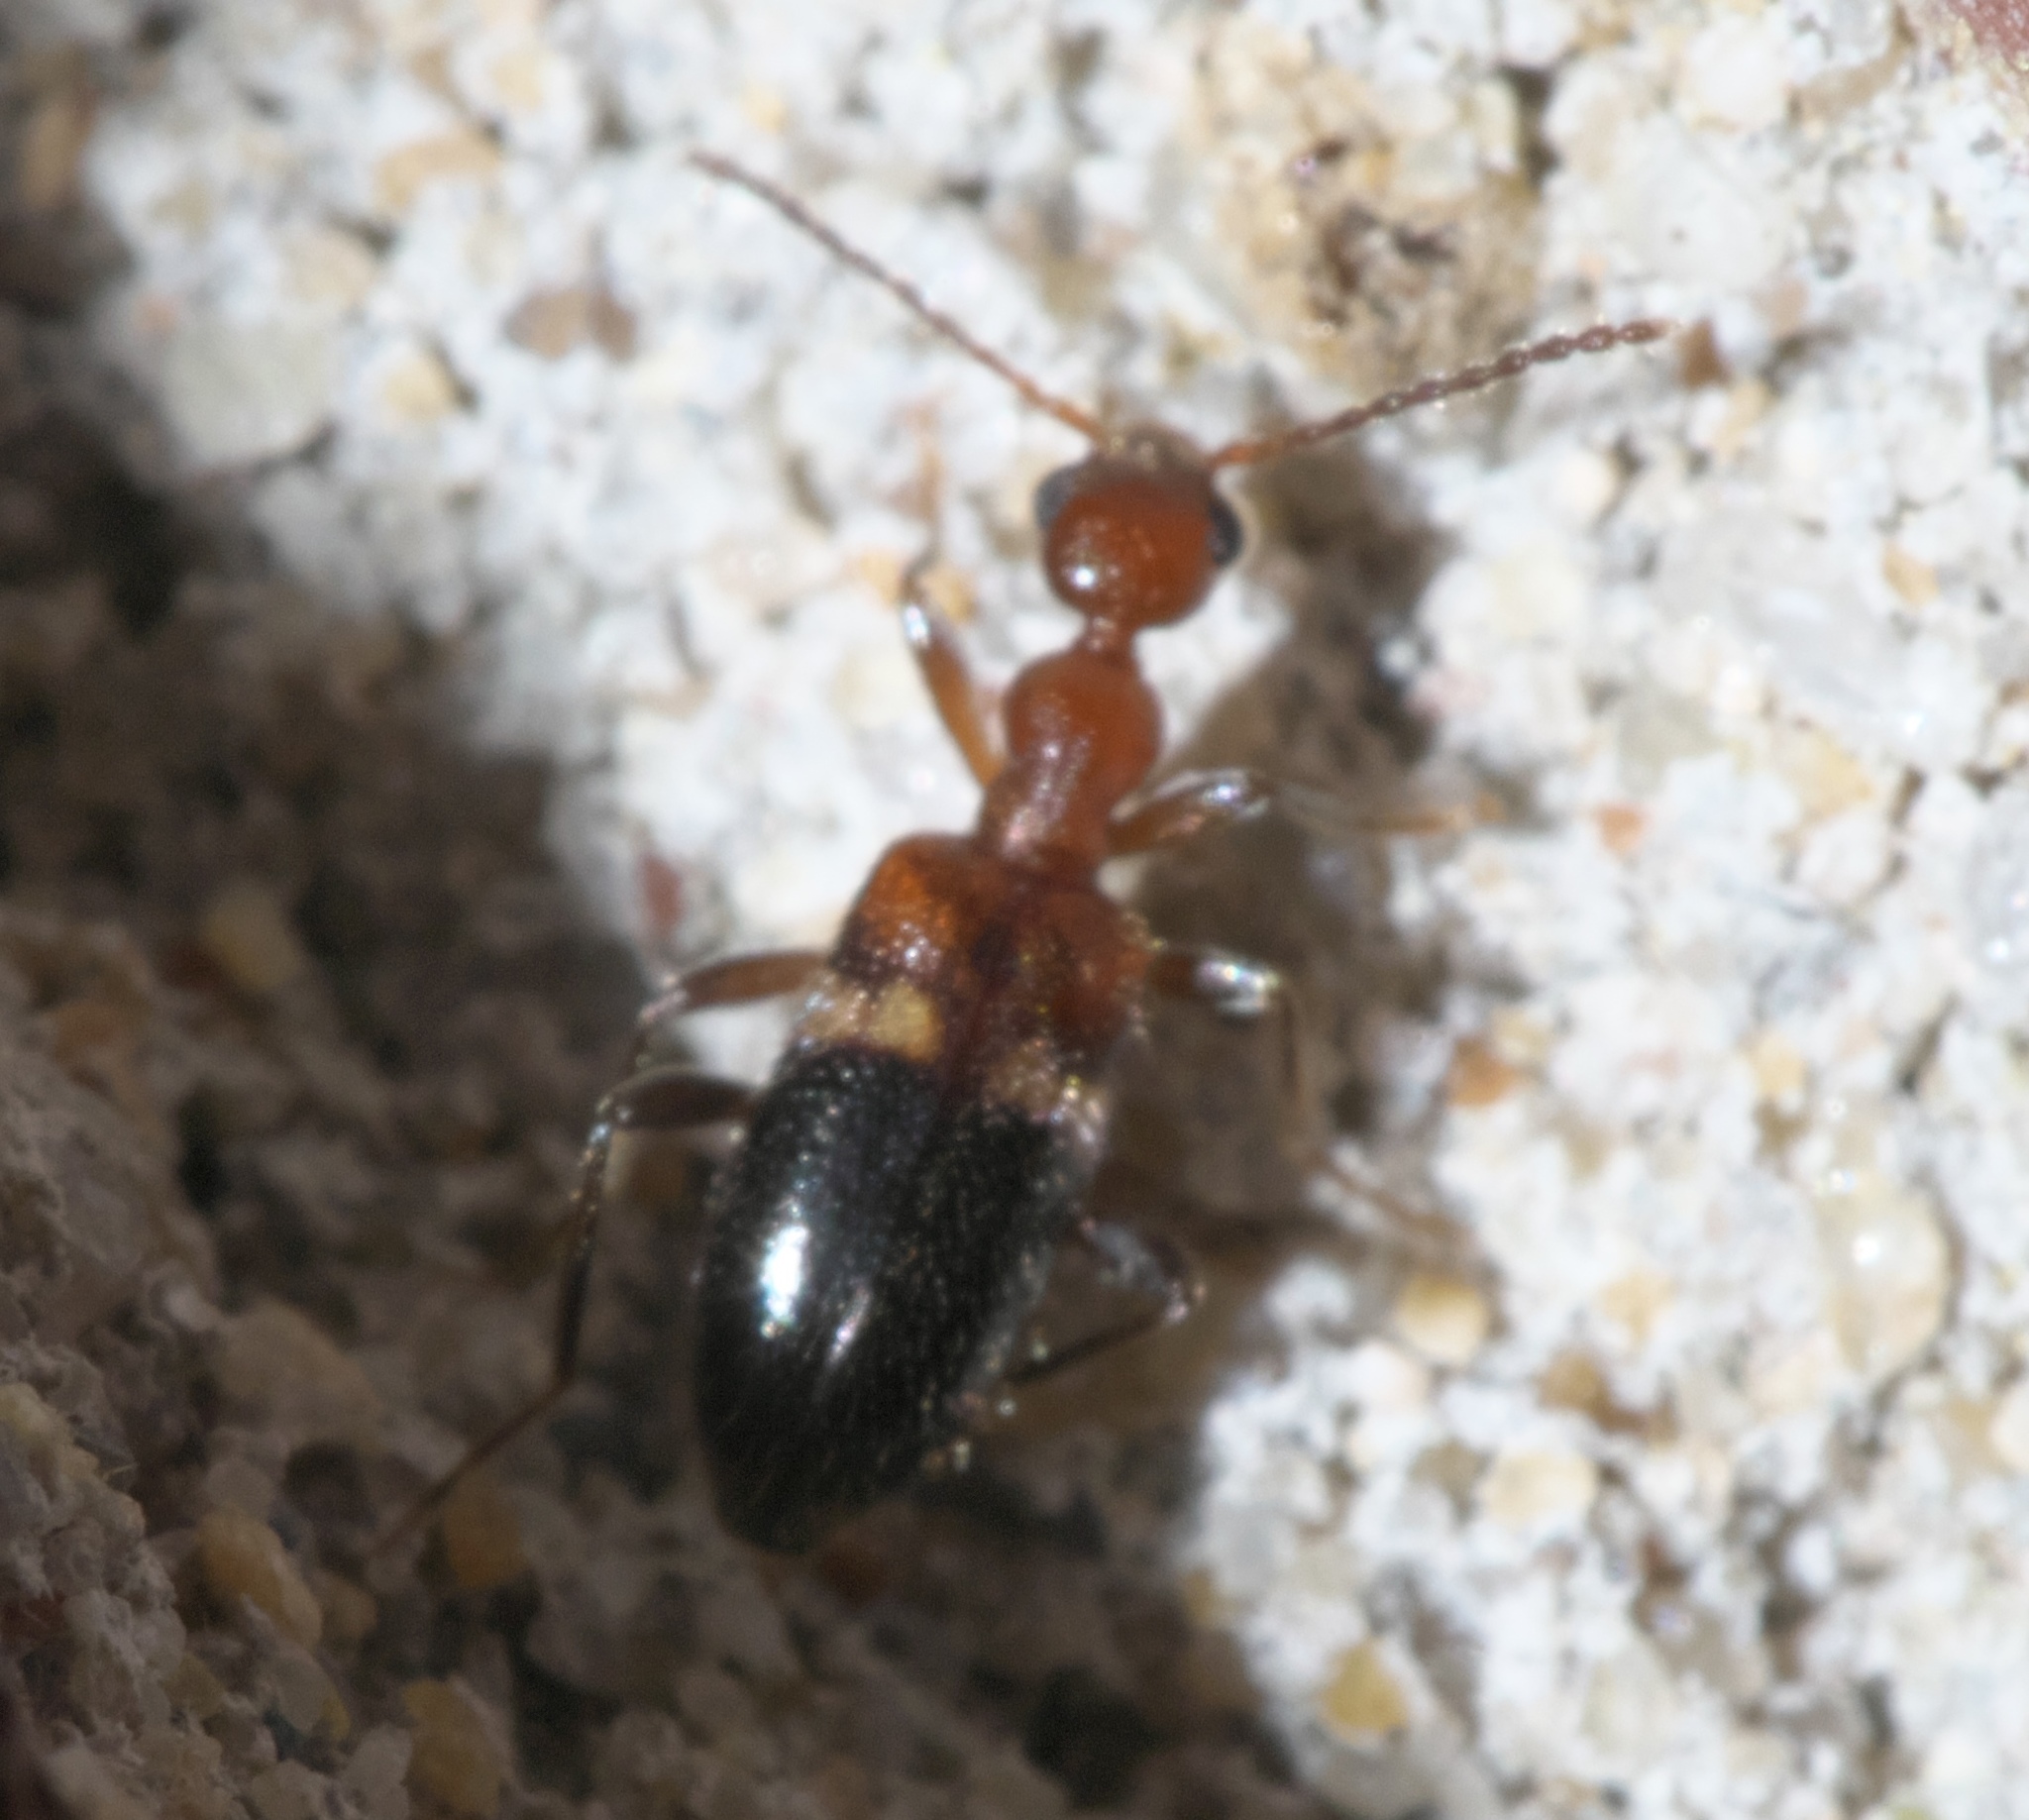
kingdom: Animalia
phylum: Arthropoda
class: Insecta
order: Coleoptera
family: Anthicidae
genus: Malporus
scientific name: Malporus cinctus
